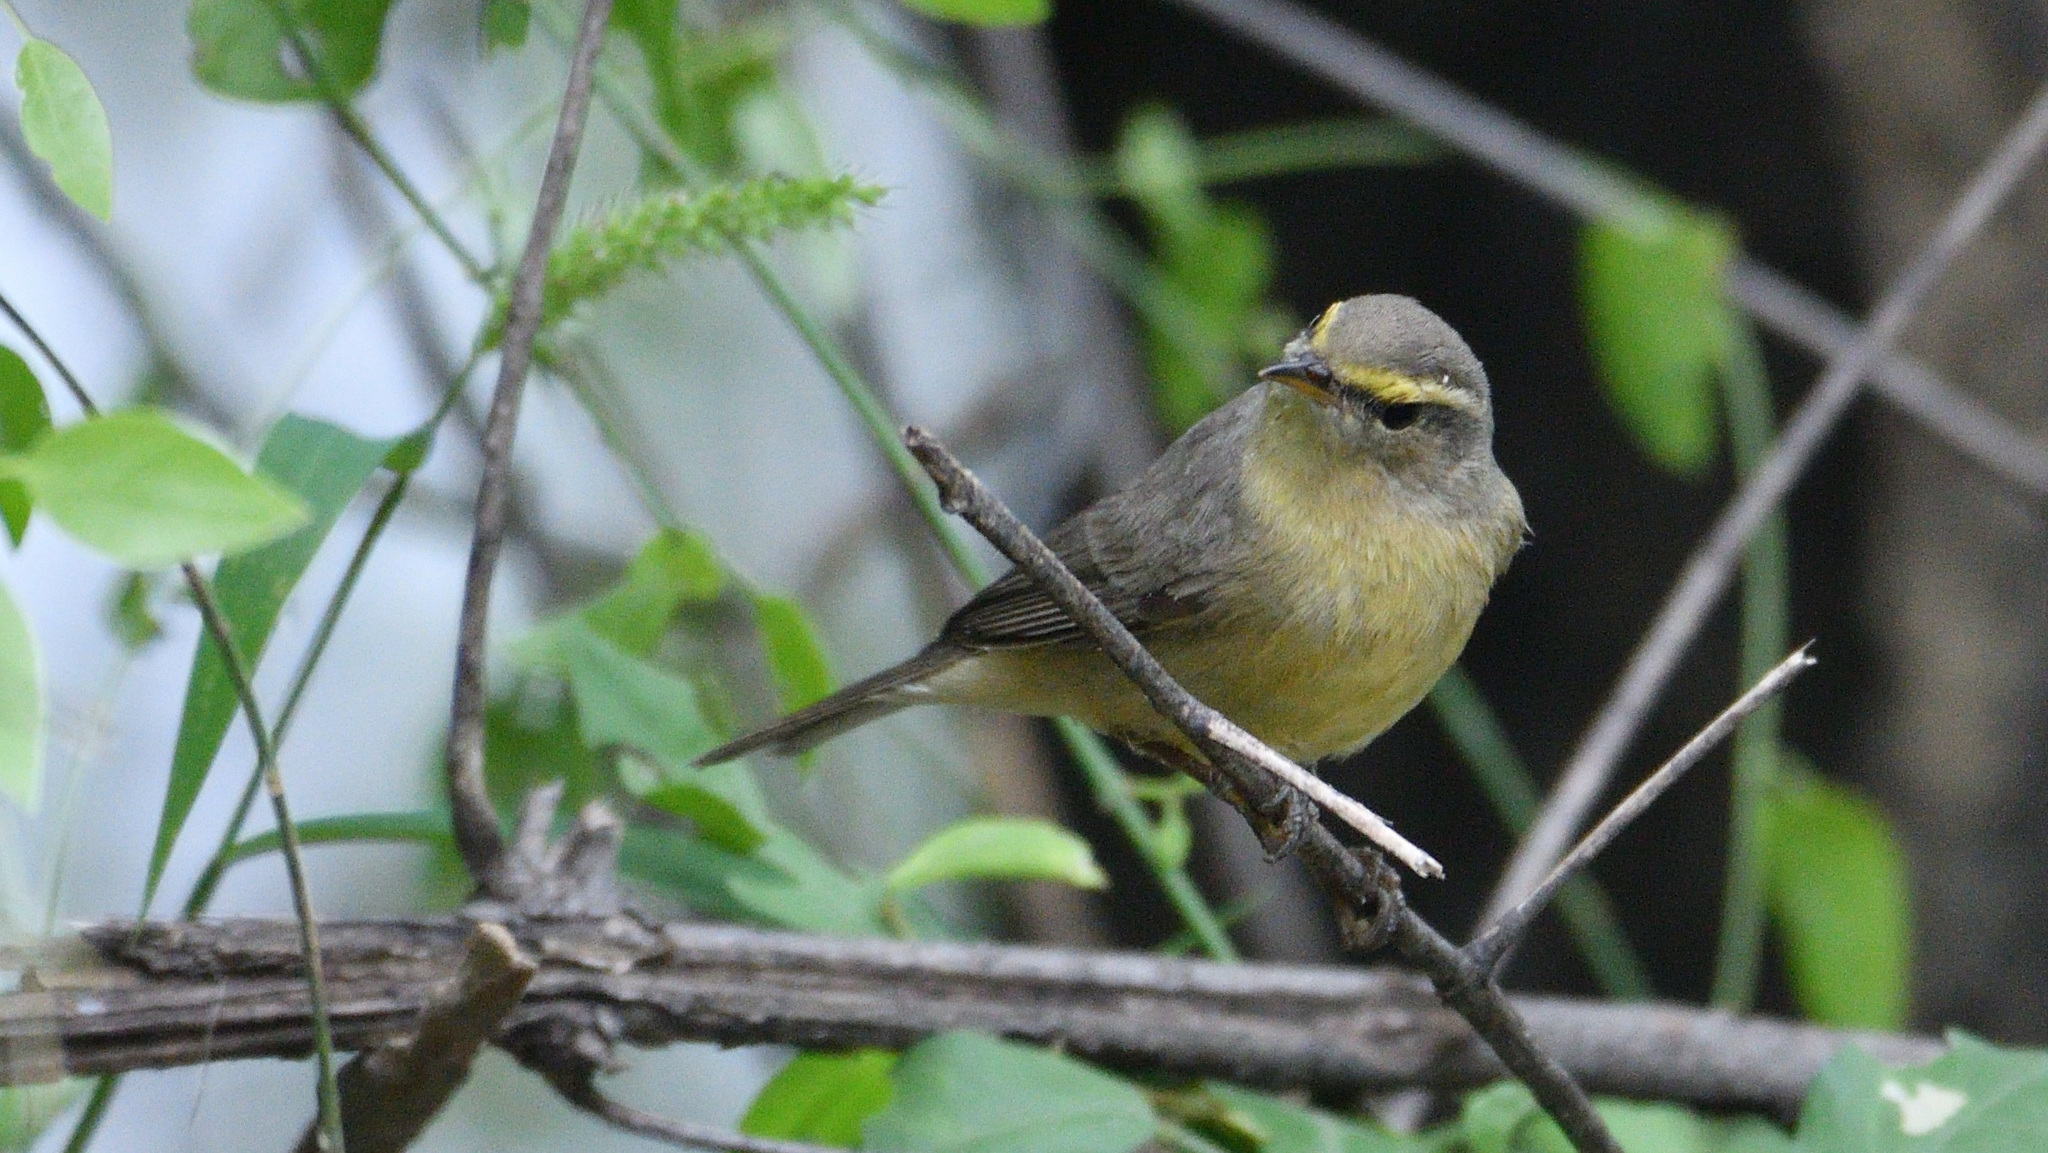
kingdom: Animalia
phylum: Chordata
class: Aves
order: Passeriformes
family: Phylloscopidae
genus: Phylloscopus
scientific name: Phylloscopus griseolus
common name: Sulphur-bellied warbler
